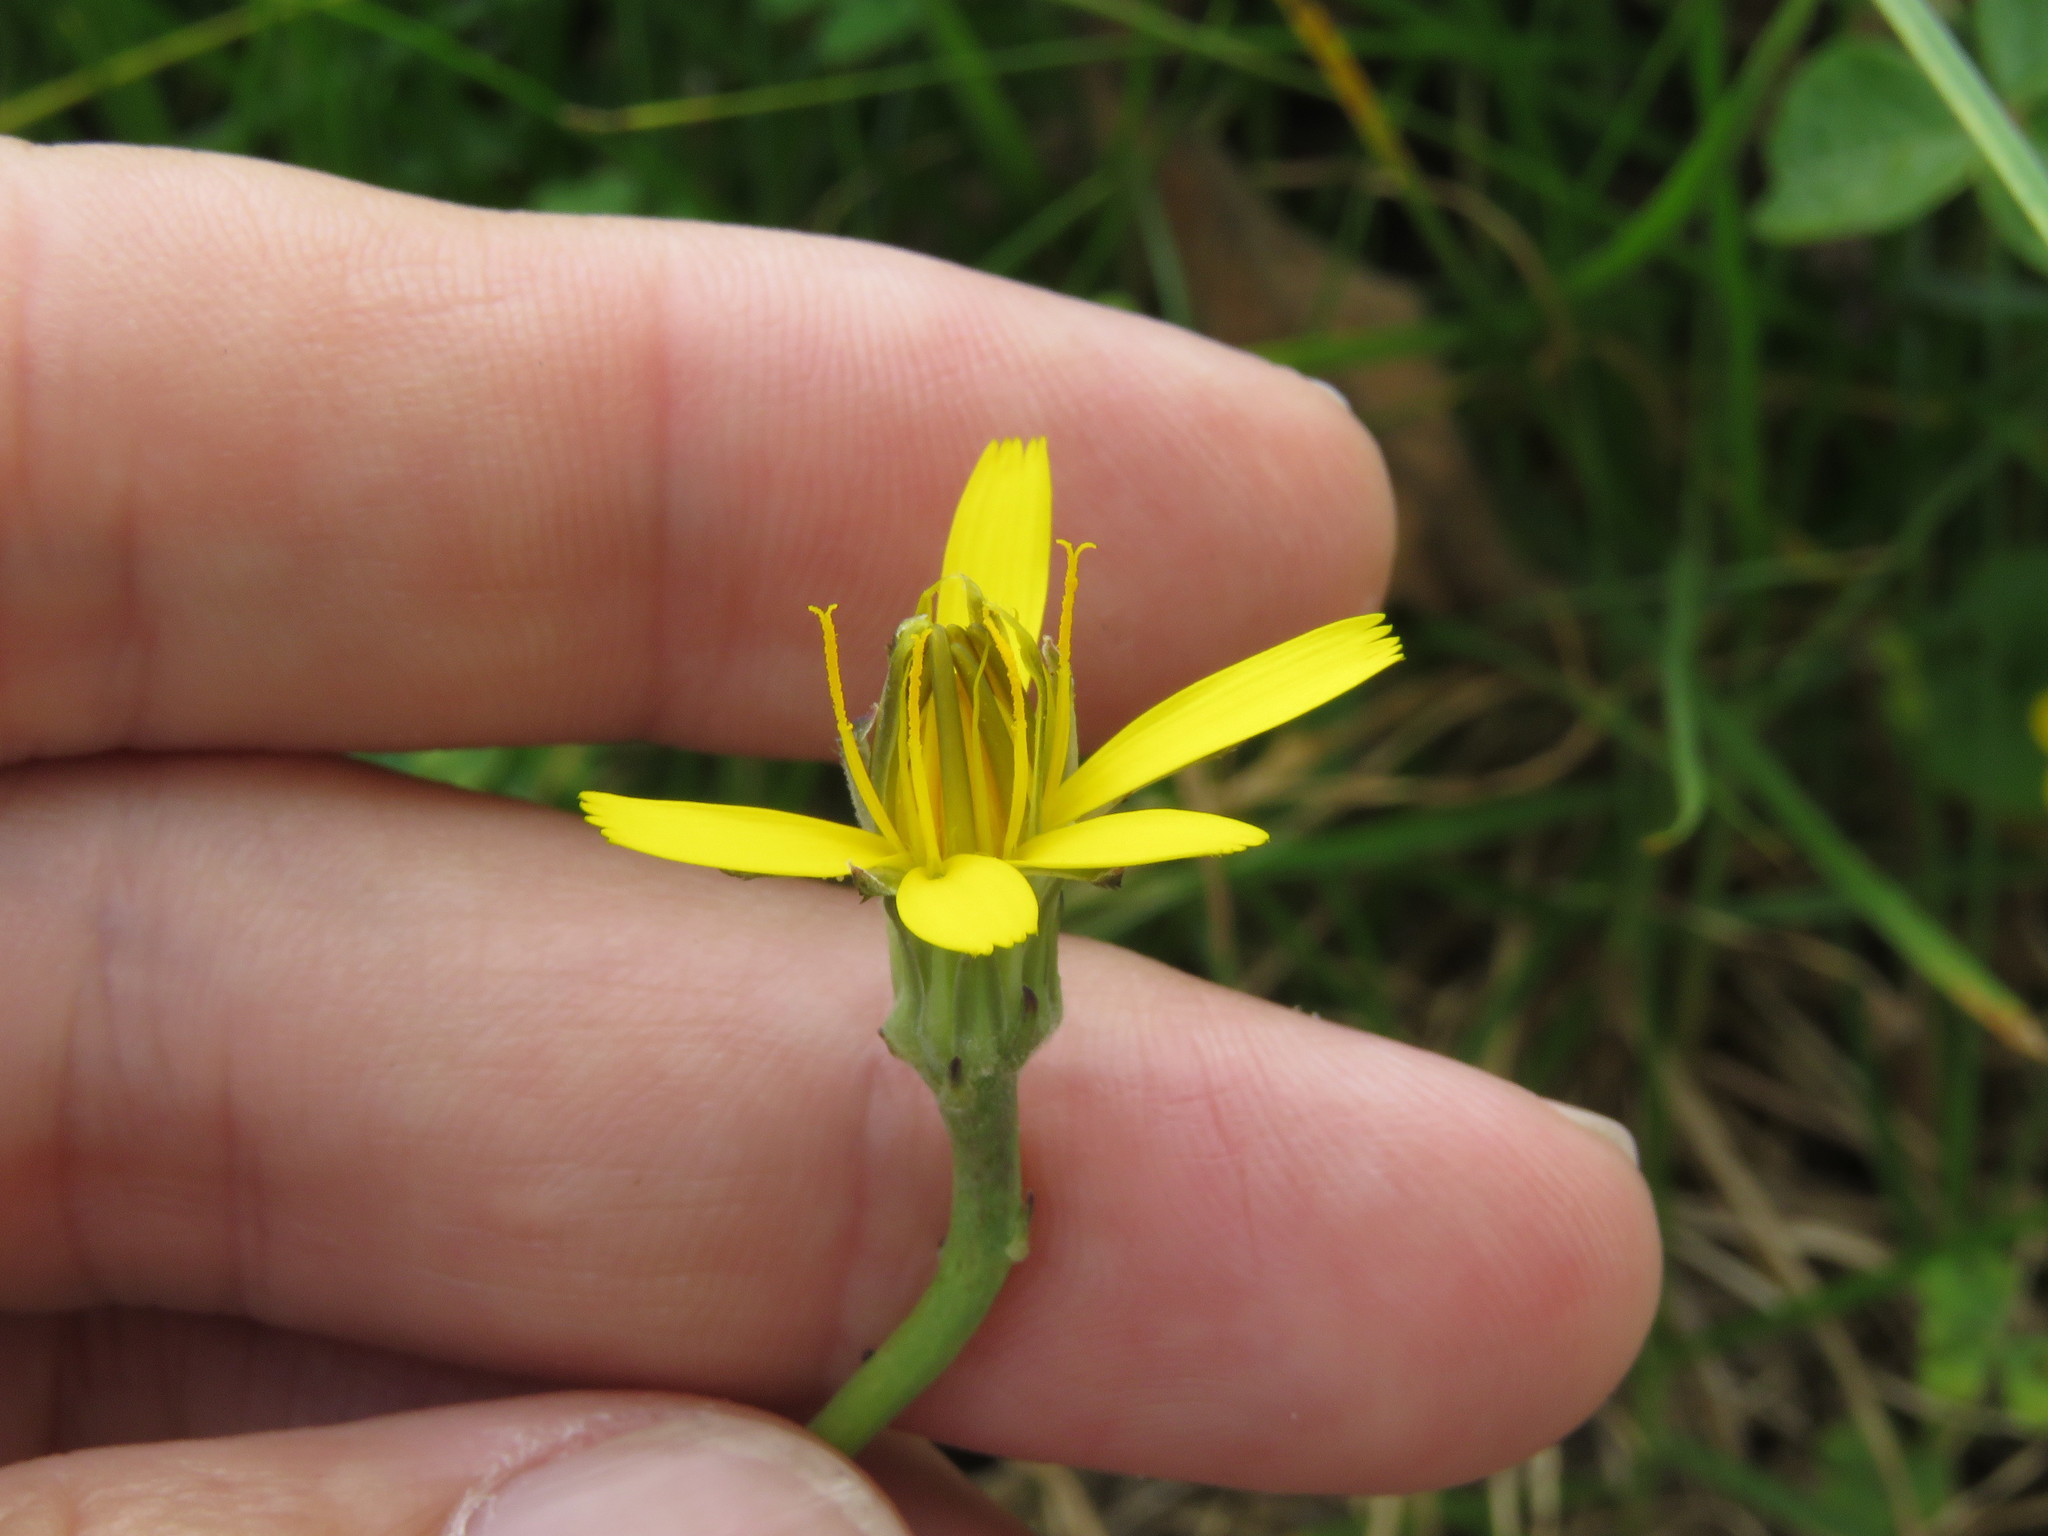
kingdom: Plantae
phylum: Tracheophyta
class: Magnoliopsida
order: Asterales
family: Asteraceae
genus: Hypochaeris
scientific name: Hypochaeris radicata
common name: Flatweed
